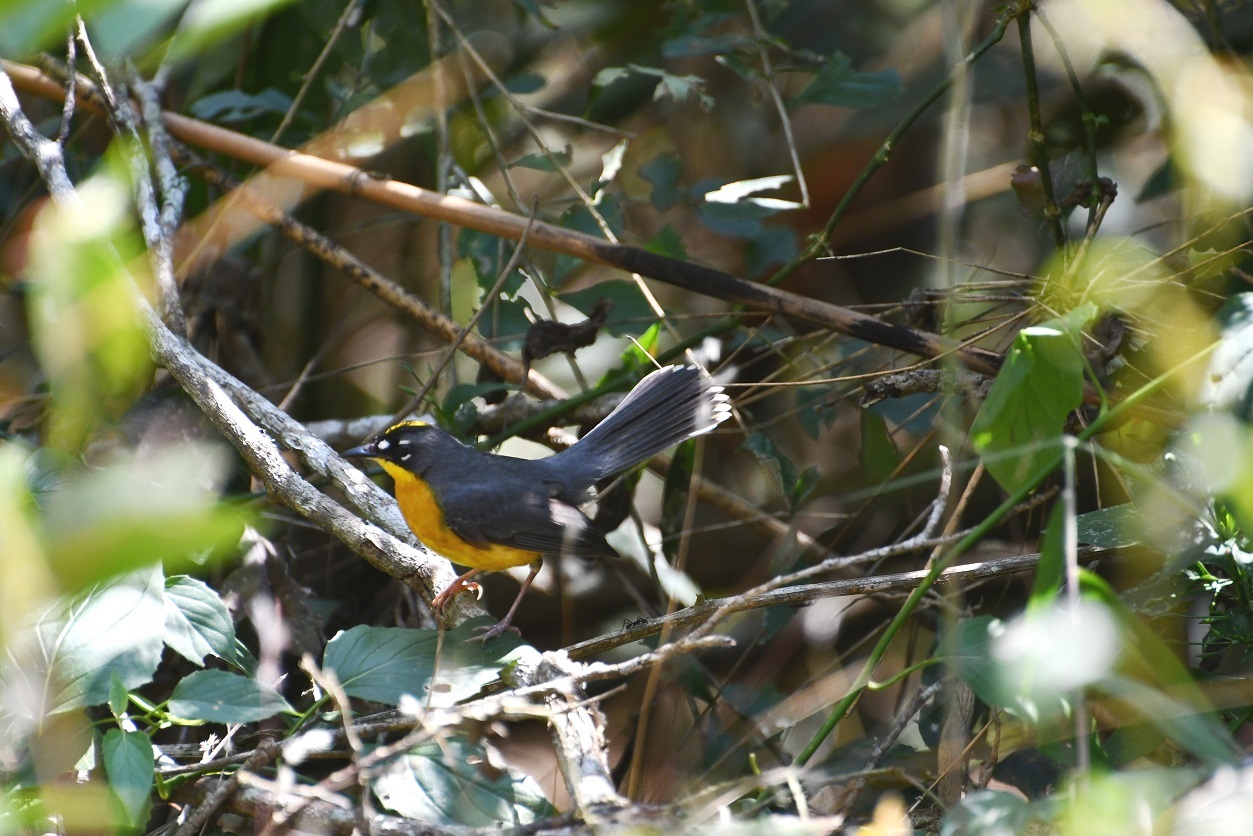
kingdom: Animalia
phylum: Chordata
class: Aves
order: Passeriformes
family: Parulidae
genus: Basileuterus
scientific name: Basileuterus lachrymosus
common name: Fan-tailed warbler
